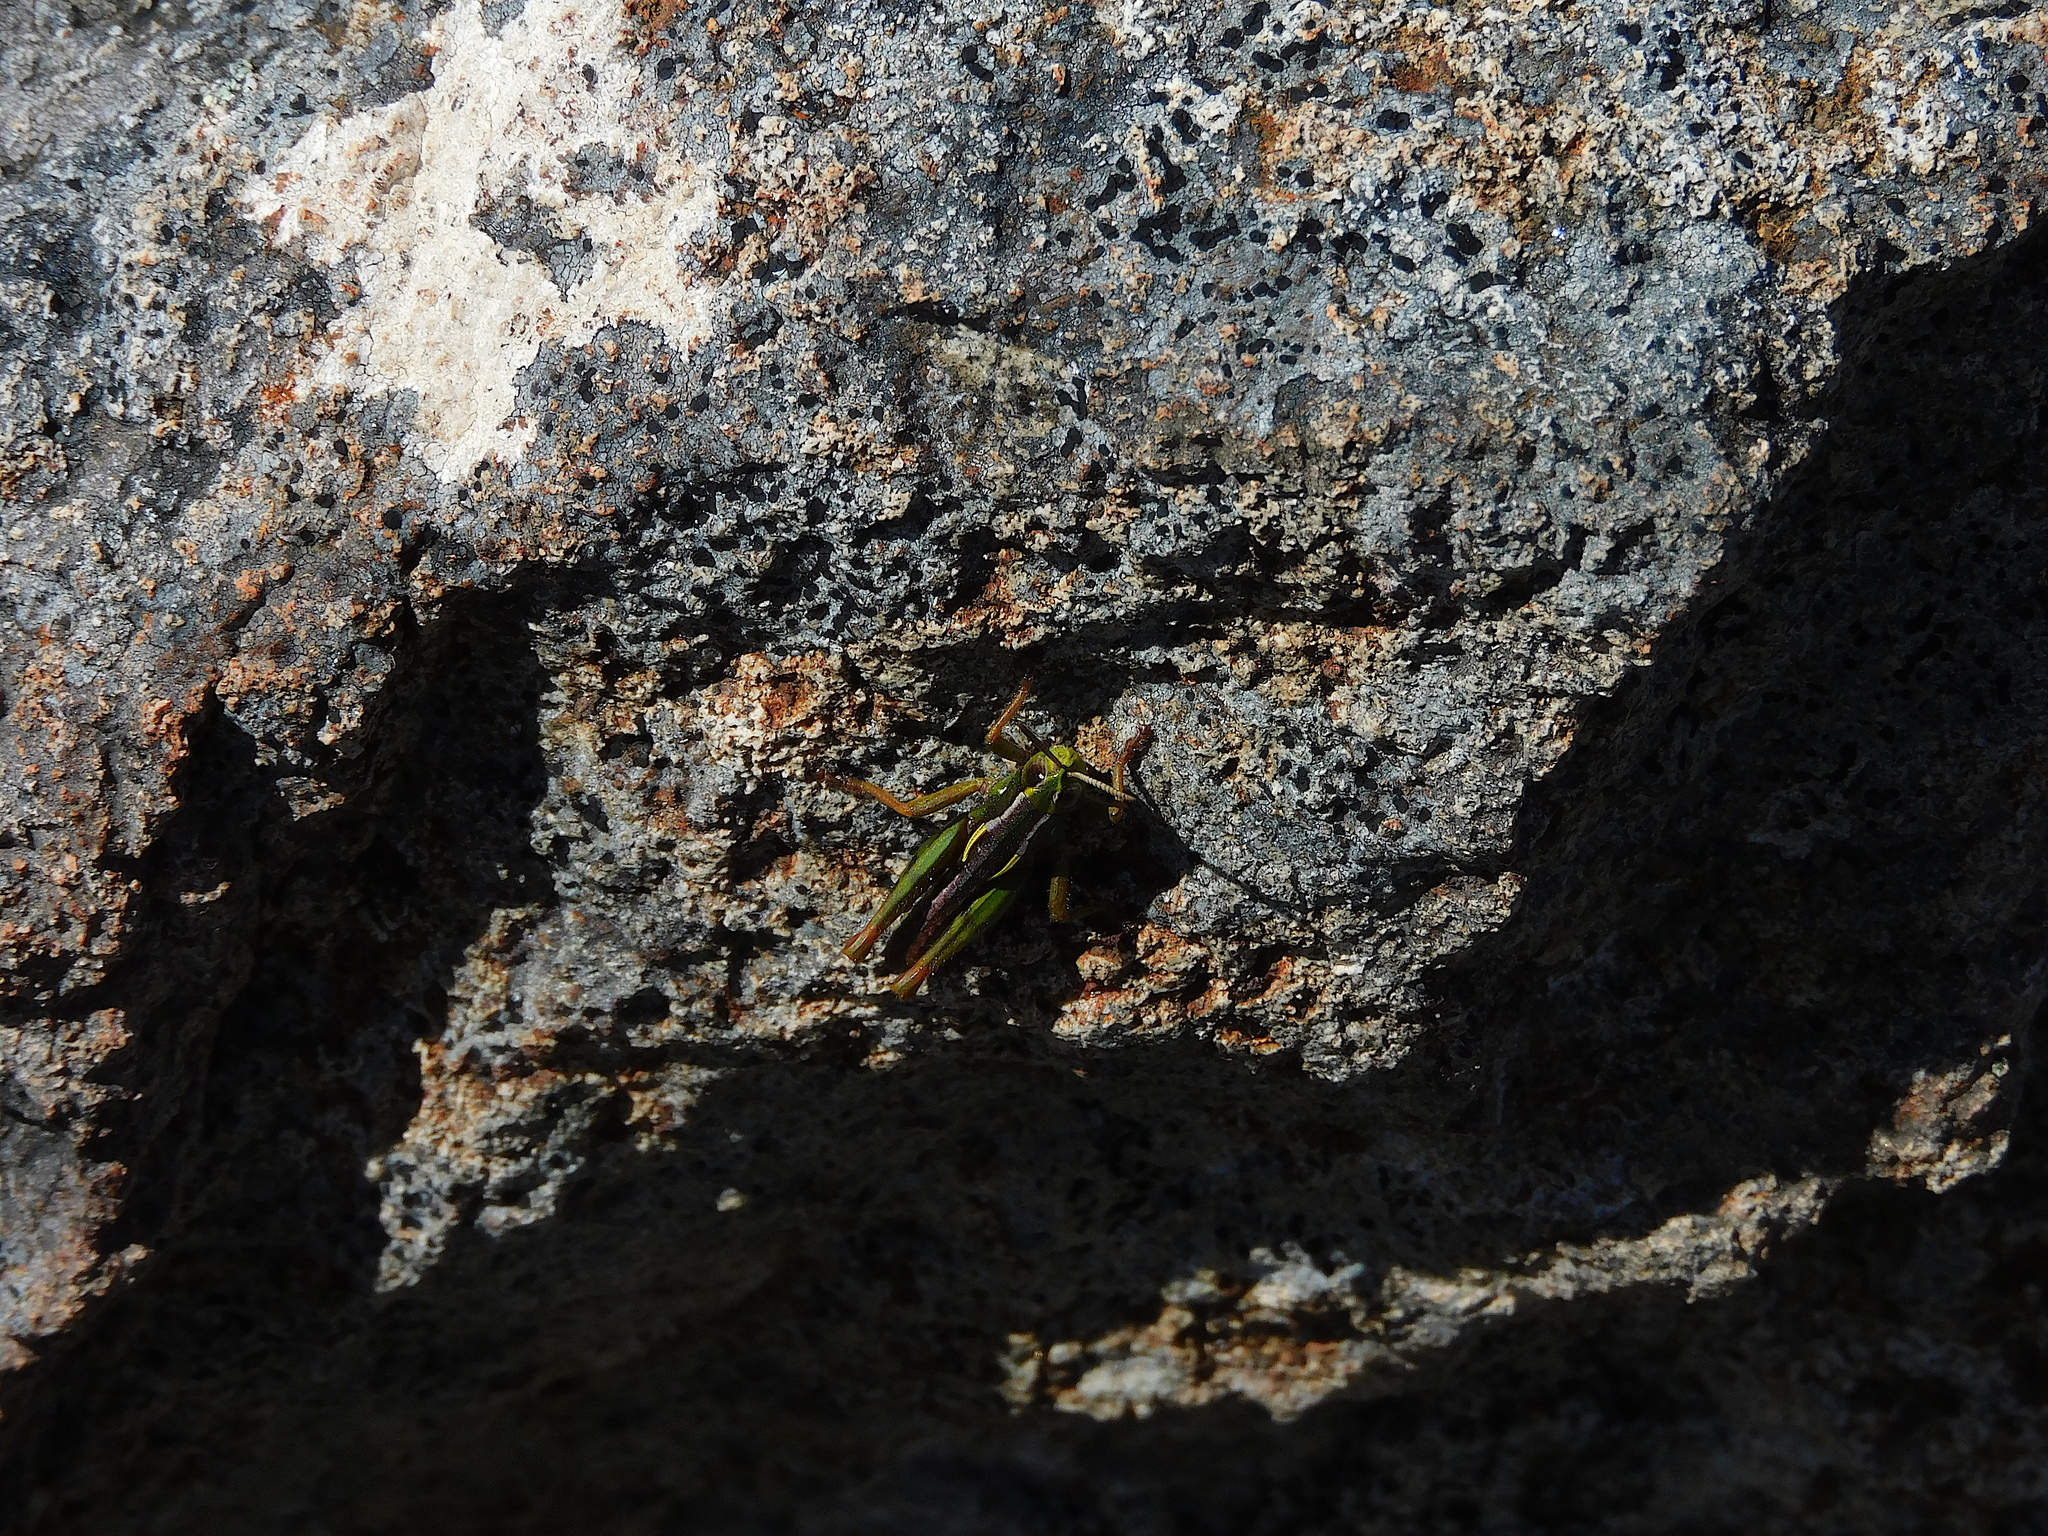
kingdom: Animalia
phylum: Arthropoda
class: Insecta
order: Orthoptera
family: Acrididae
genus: Russalpia
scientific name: Russalpia albertisi
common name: Tassie hopper
